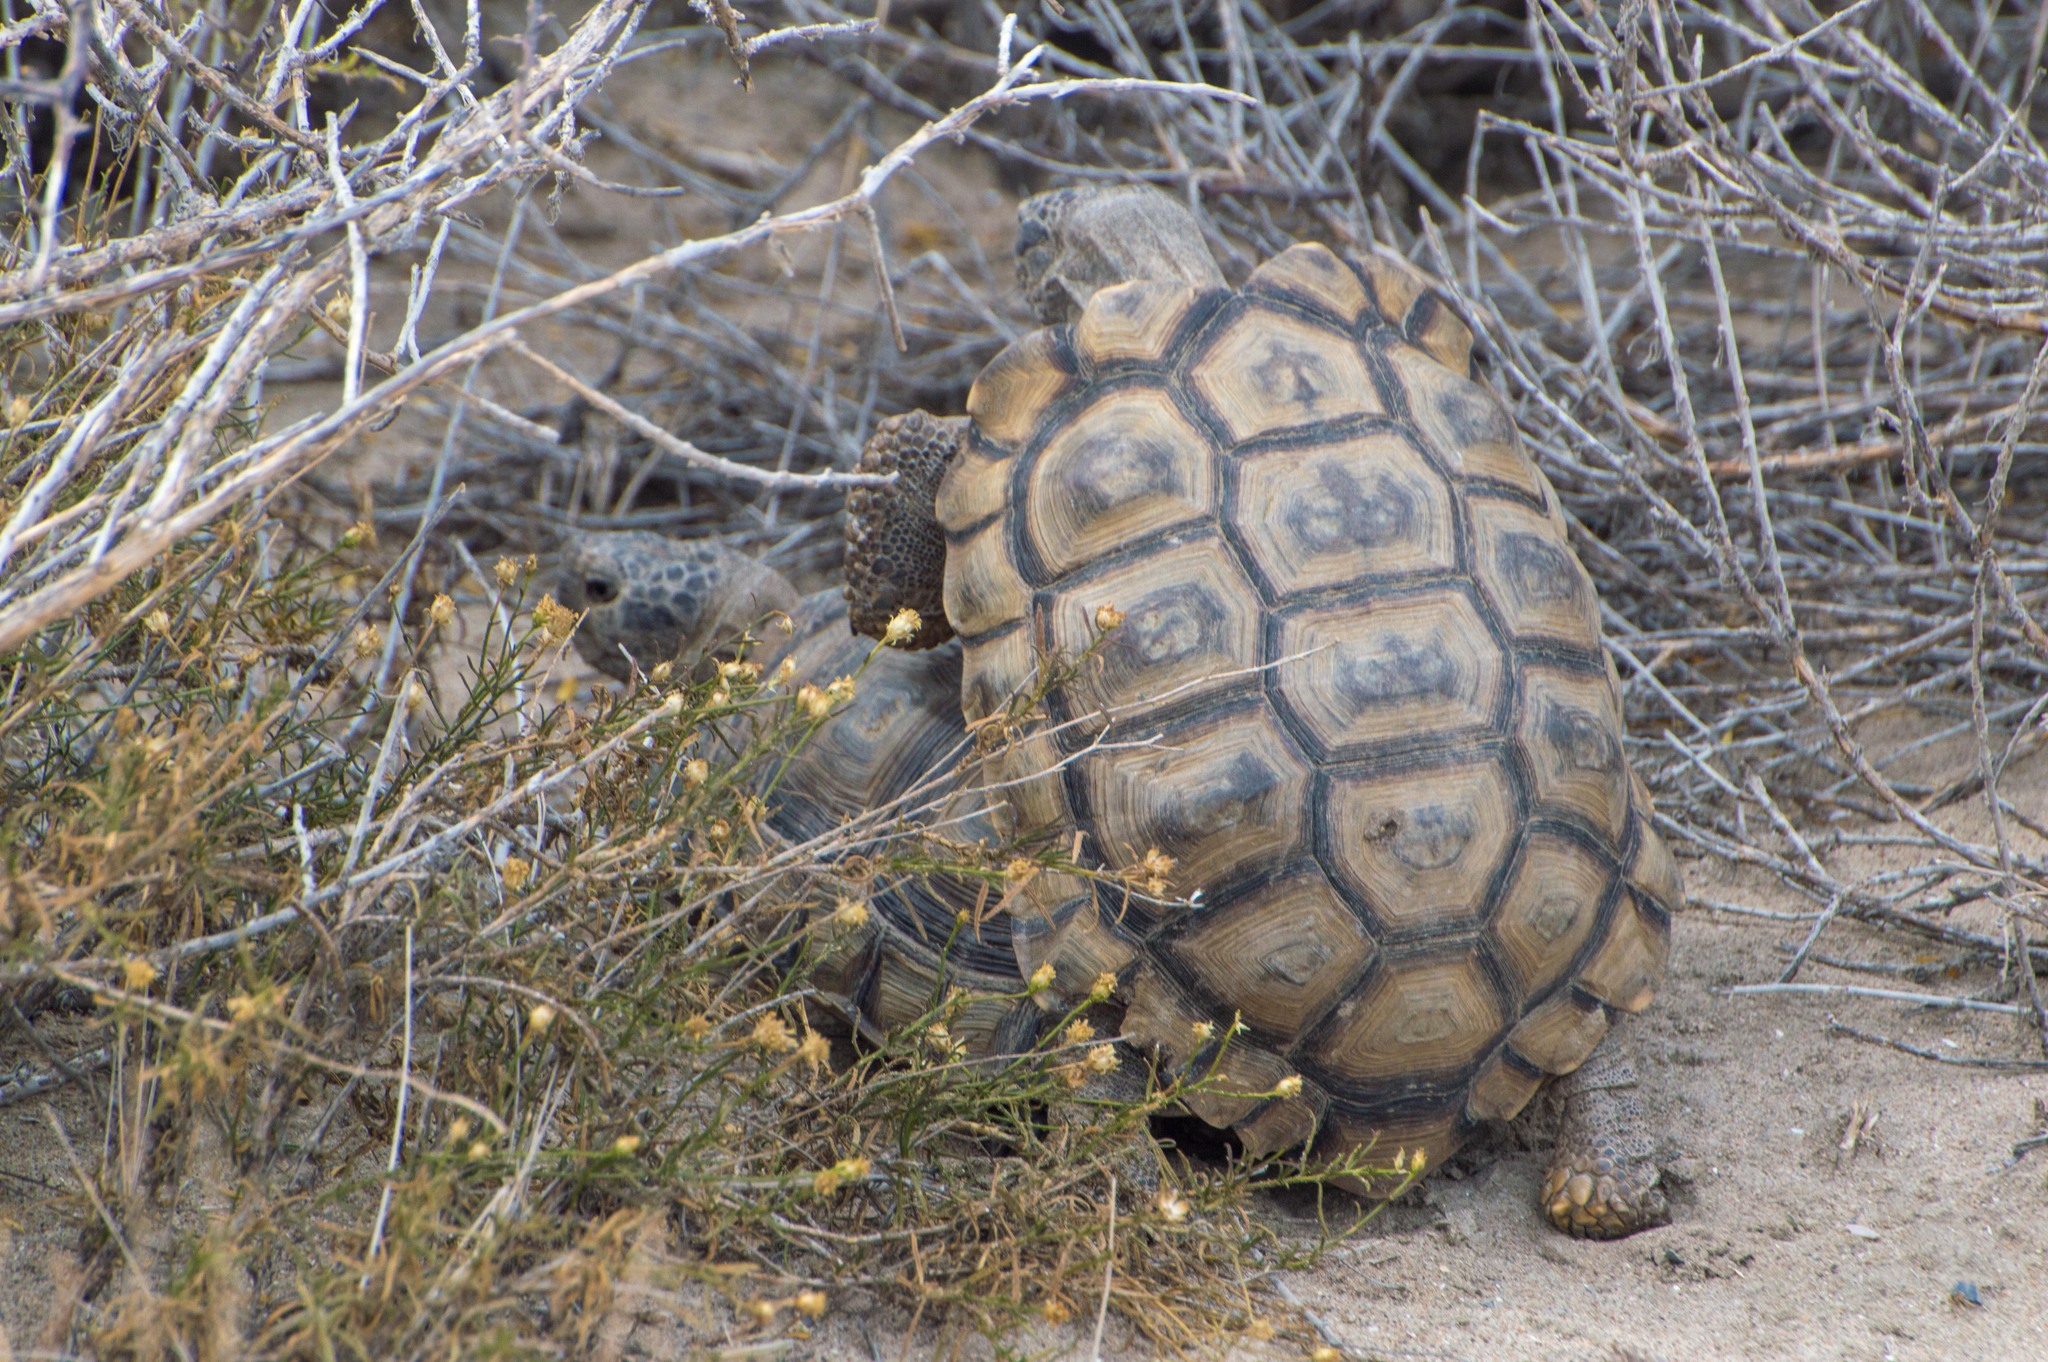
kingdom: Animalia
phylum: Chordata
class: Testudines
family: Testudinidae
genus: Chelonoidis
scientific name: Chelonoidis chilensis
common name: Chaco tortoise
